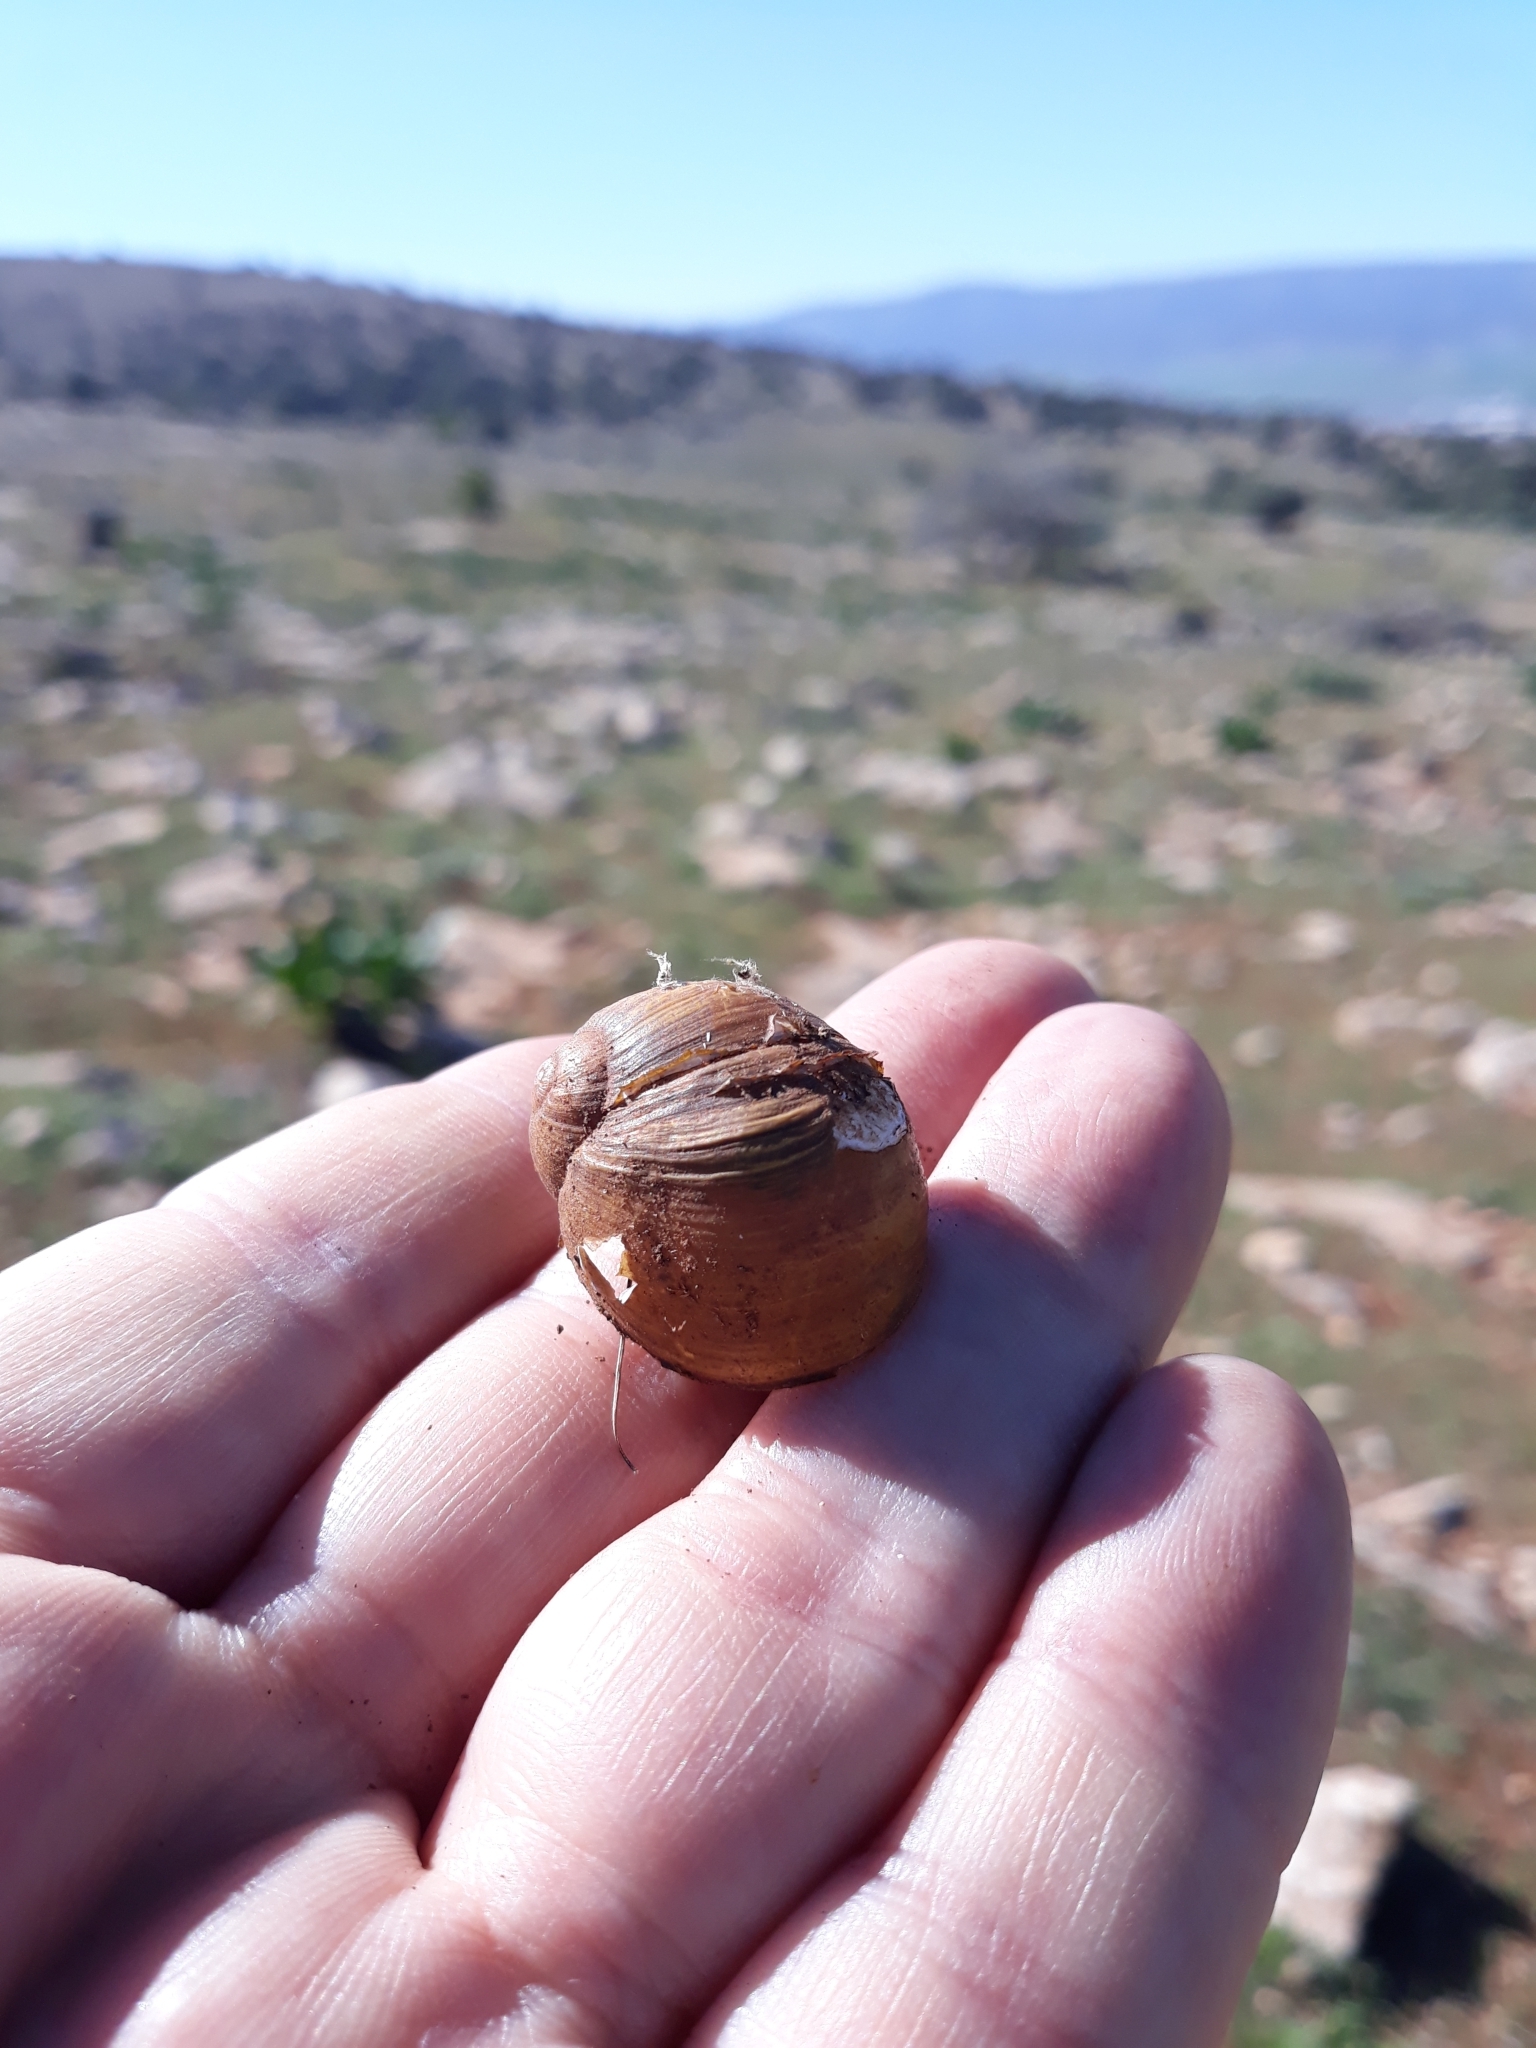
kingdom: Animalia
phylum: Mollusca
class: Gastropoda
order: Stylommatophora
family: Helicidae
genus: Cantareus
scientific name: Cantareus apertus
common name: Green gardensnail
